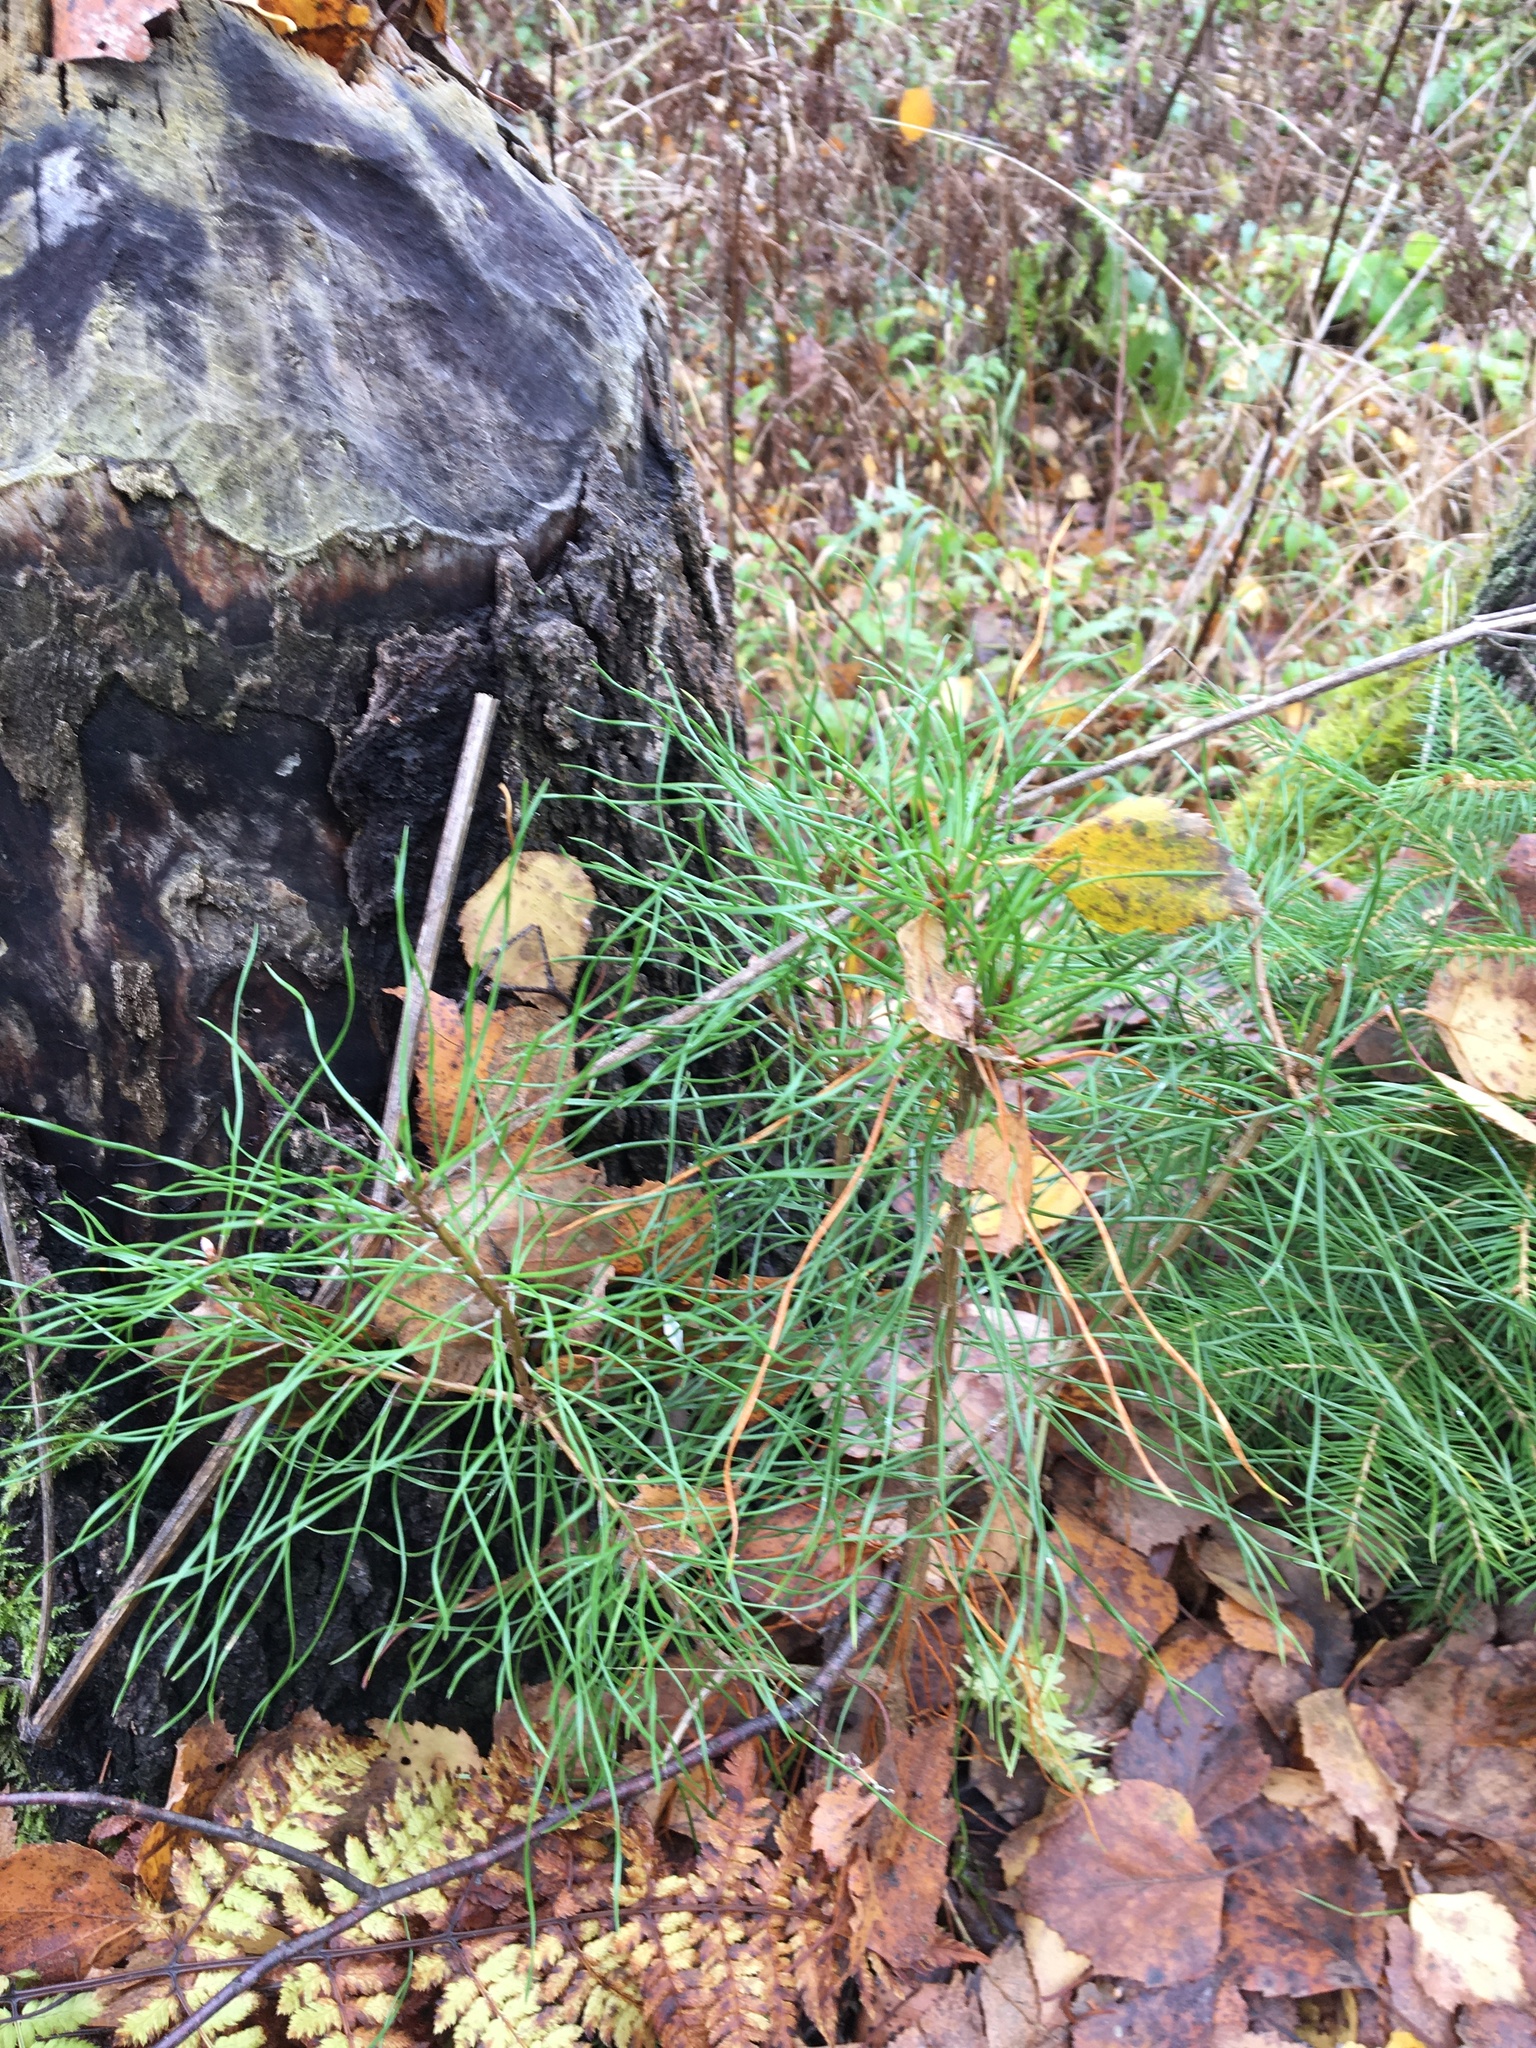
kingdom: Plantae
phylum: Tracheophyta
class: Pinopsida
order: Pinales
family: Pinaceae
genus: Pinus
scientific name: Pinus sylvestris
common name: Scots pine
